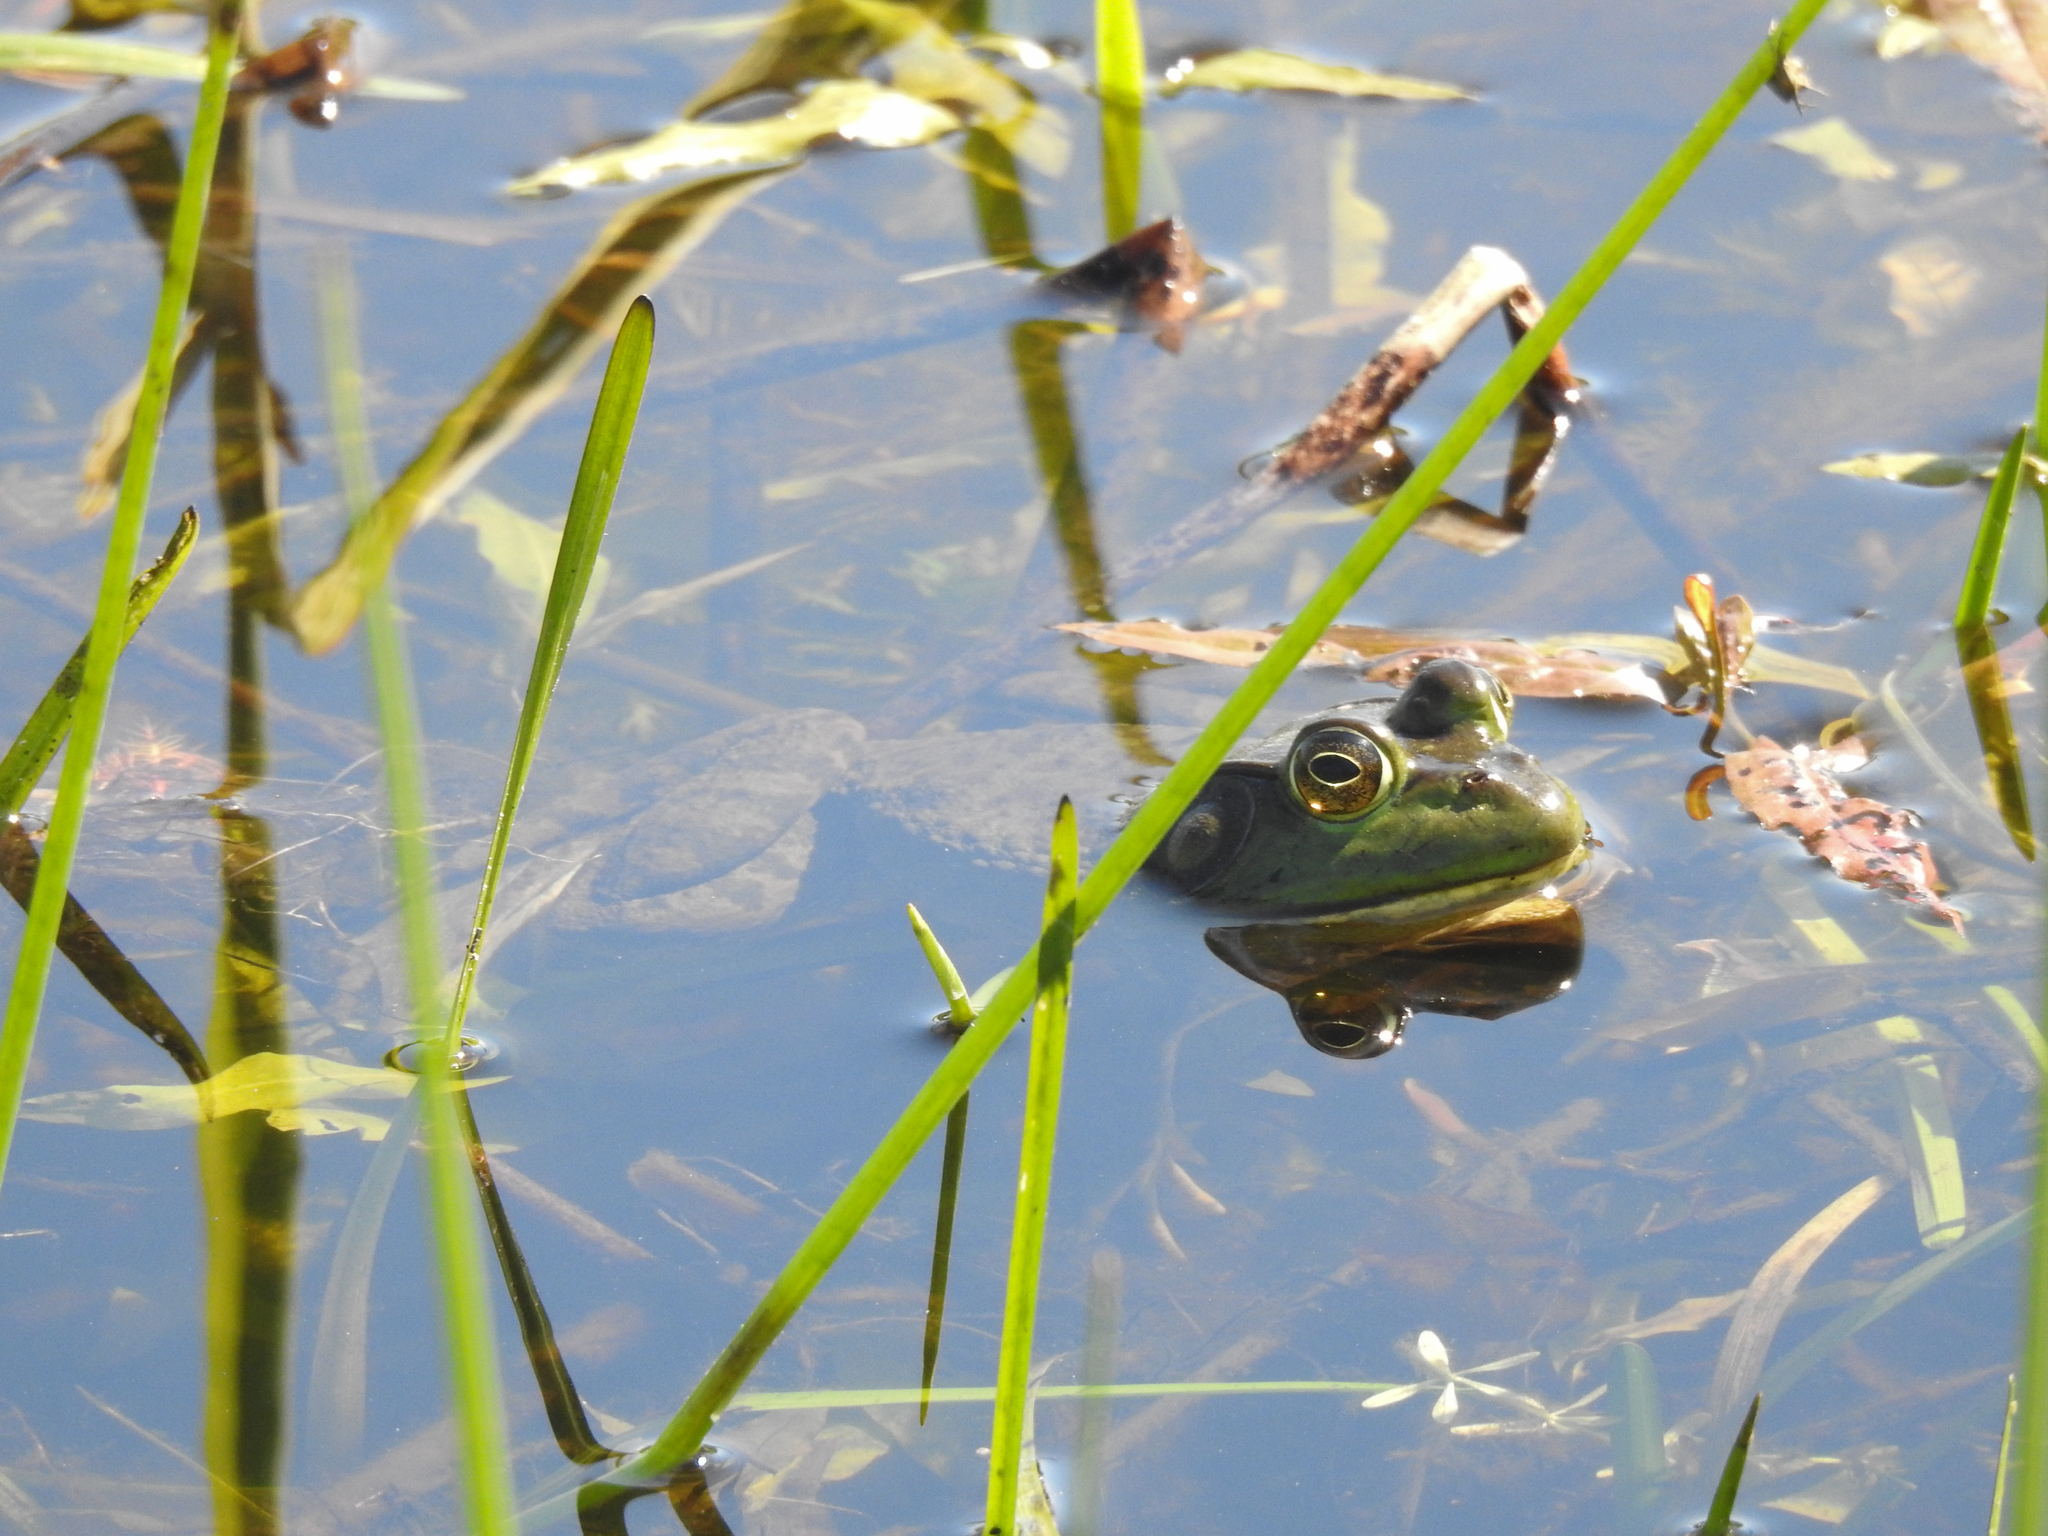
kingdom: Animalia
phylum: Chordata
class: Amphibia
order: Anura
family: Ranidae
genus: Lithobates
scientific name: Lithobates catesbeianus
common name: American bullfrog
